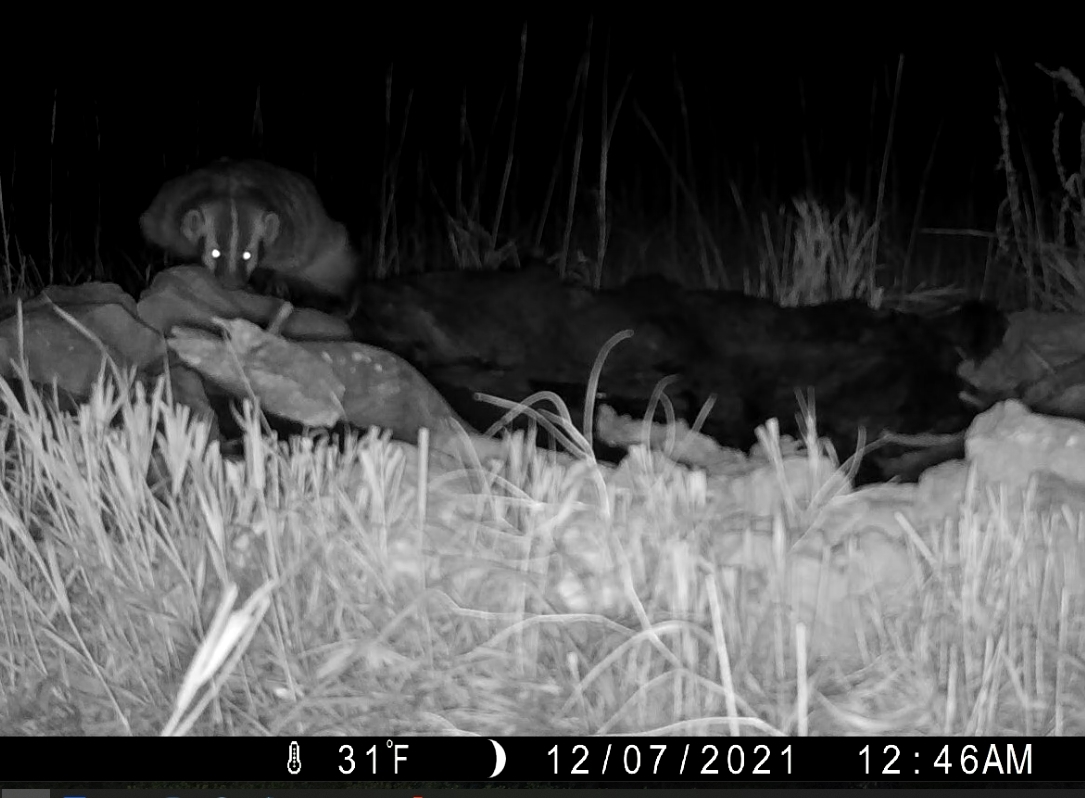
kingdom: Animalia
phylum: Chordata
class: Mammalia
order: Carnivora
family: Mustelidae
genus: Taxidea
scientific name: Taxidea taxus
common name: American badger
